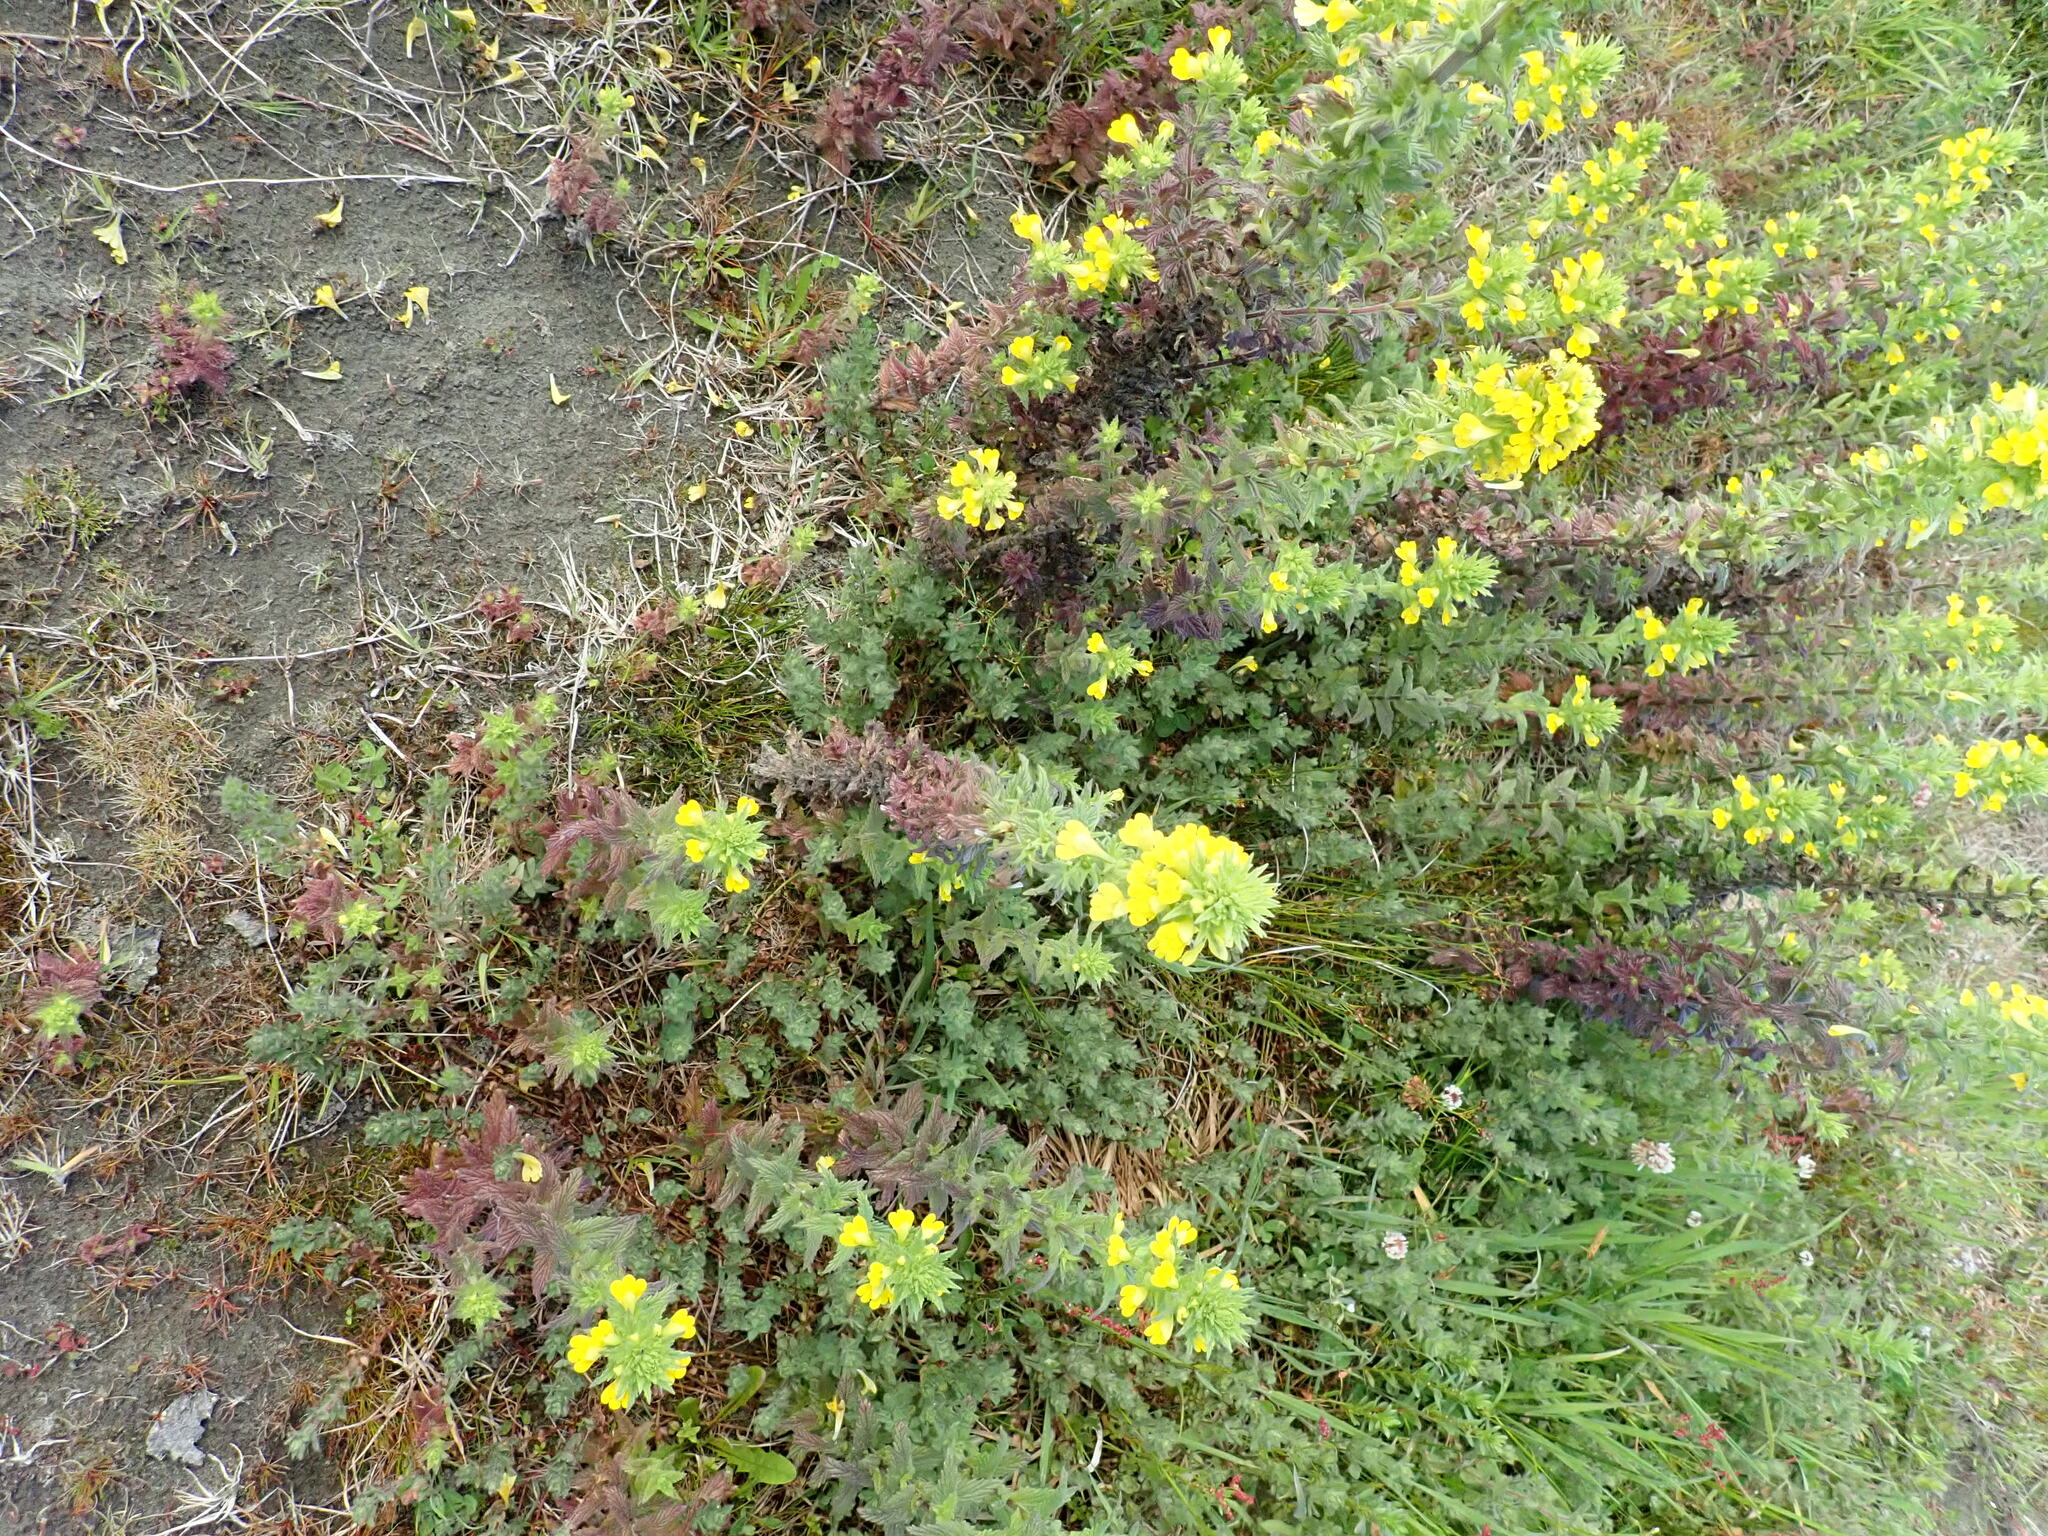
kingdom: Plantae
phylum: Tracheophyta
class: Magnoliopsida
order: Lamiales
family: Orobanchaceae
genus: Bellardia
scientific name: Bellardia viscosa
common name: Sticky parentucellia
